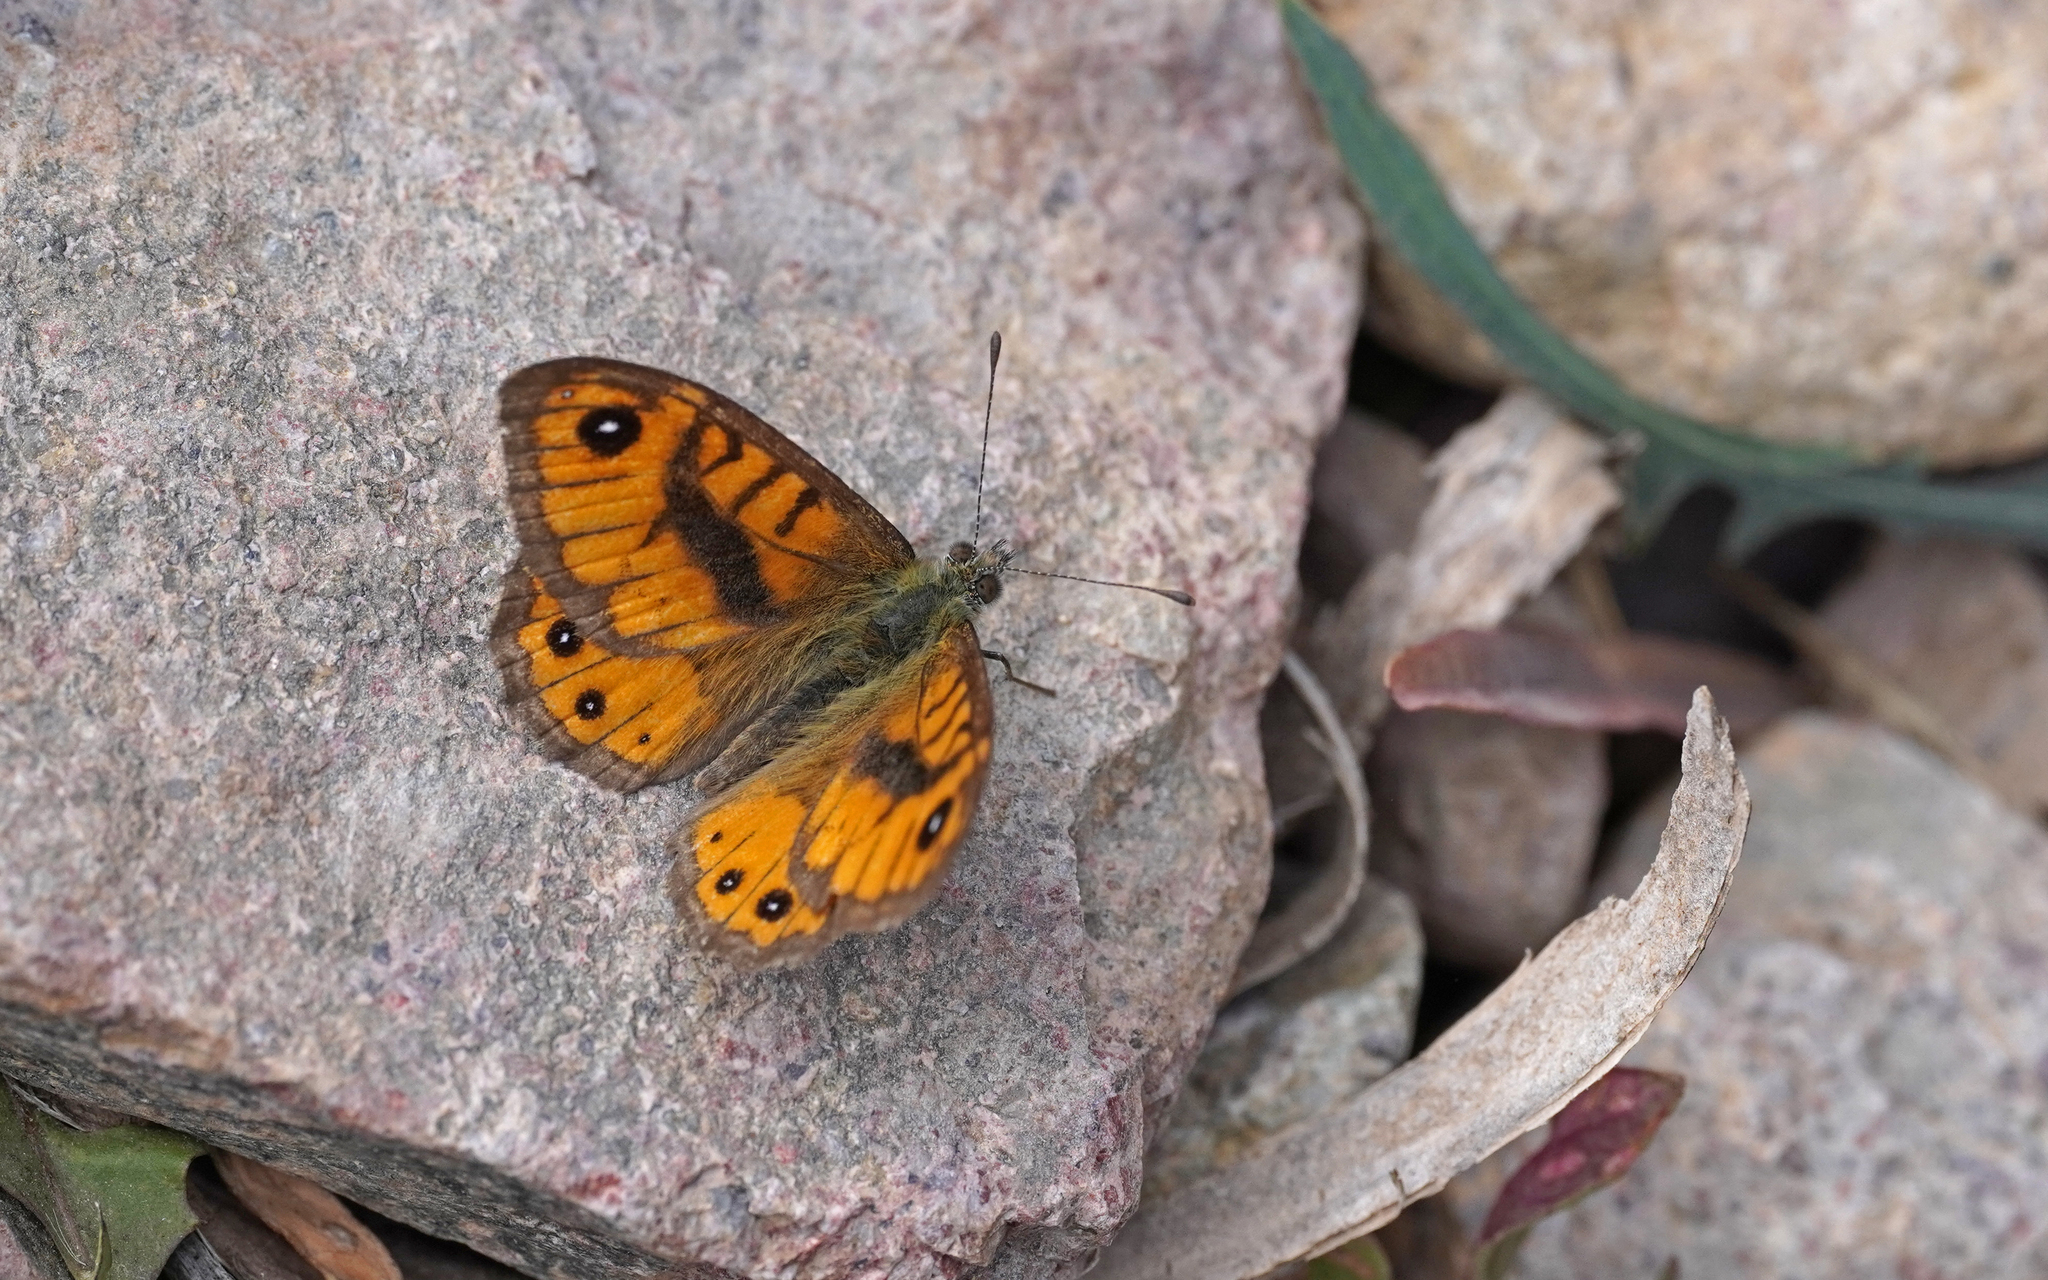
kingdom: Animalia
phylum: Arthropoda
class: Insecta
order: Lepidoptera
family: Nymphalidae
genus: Pararge
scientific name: Pararge Lasiommata paramegaera
